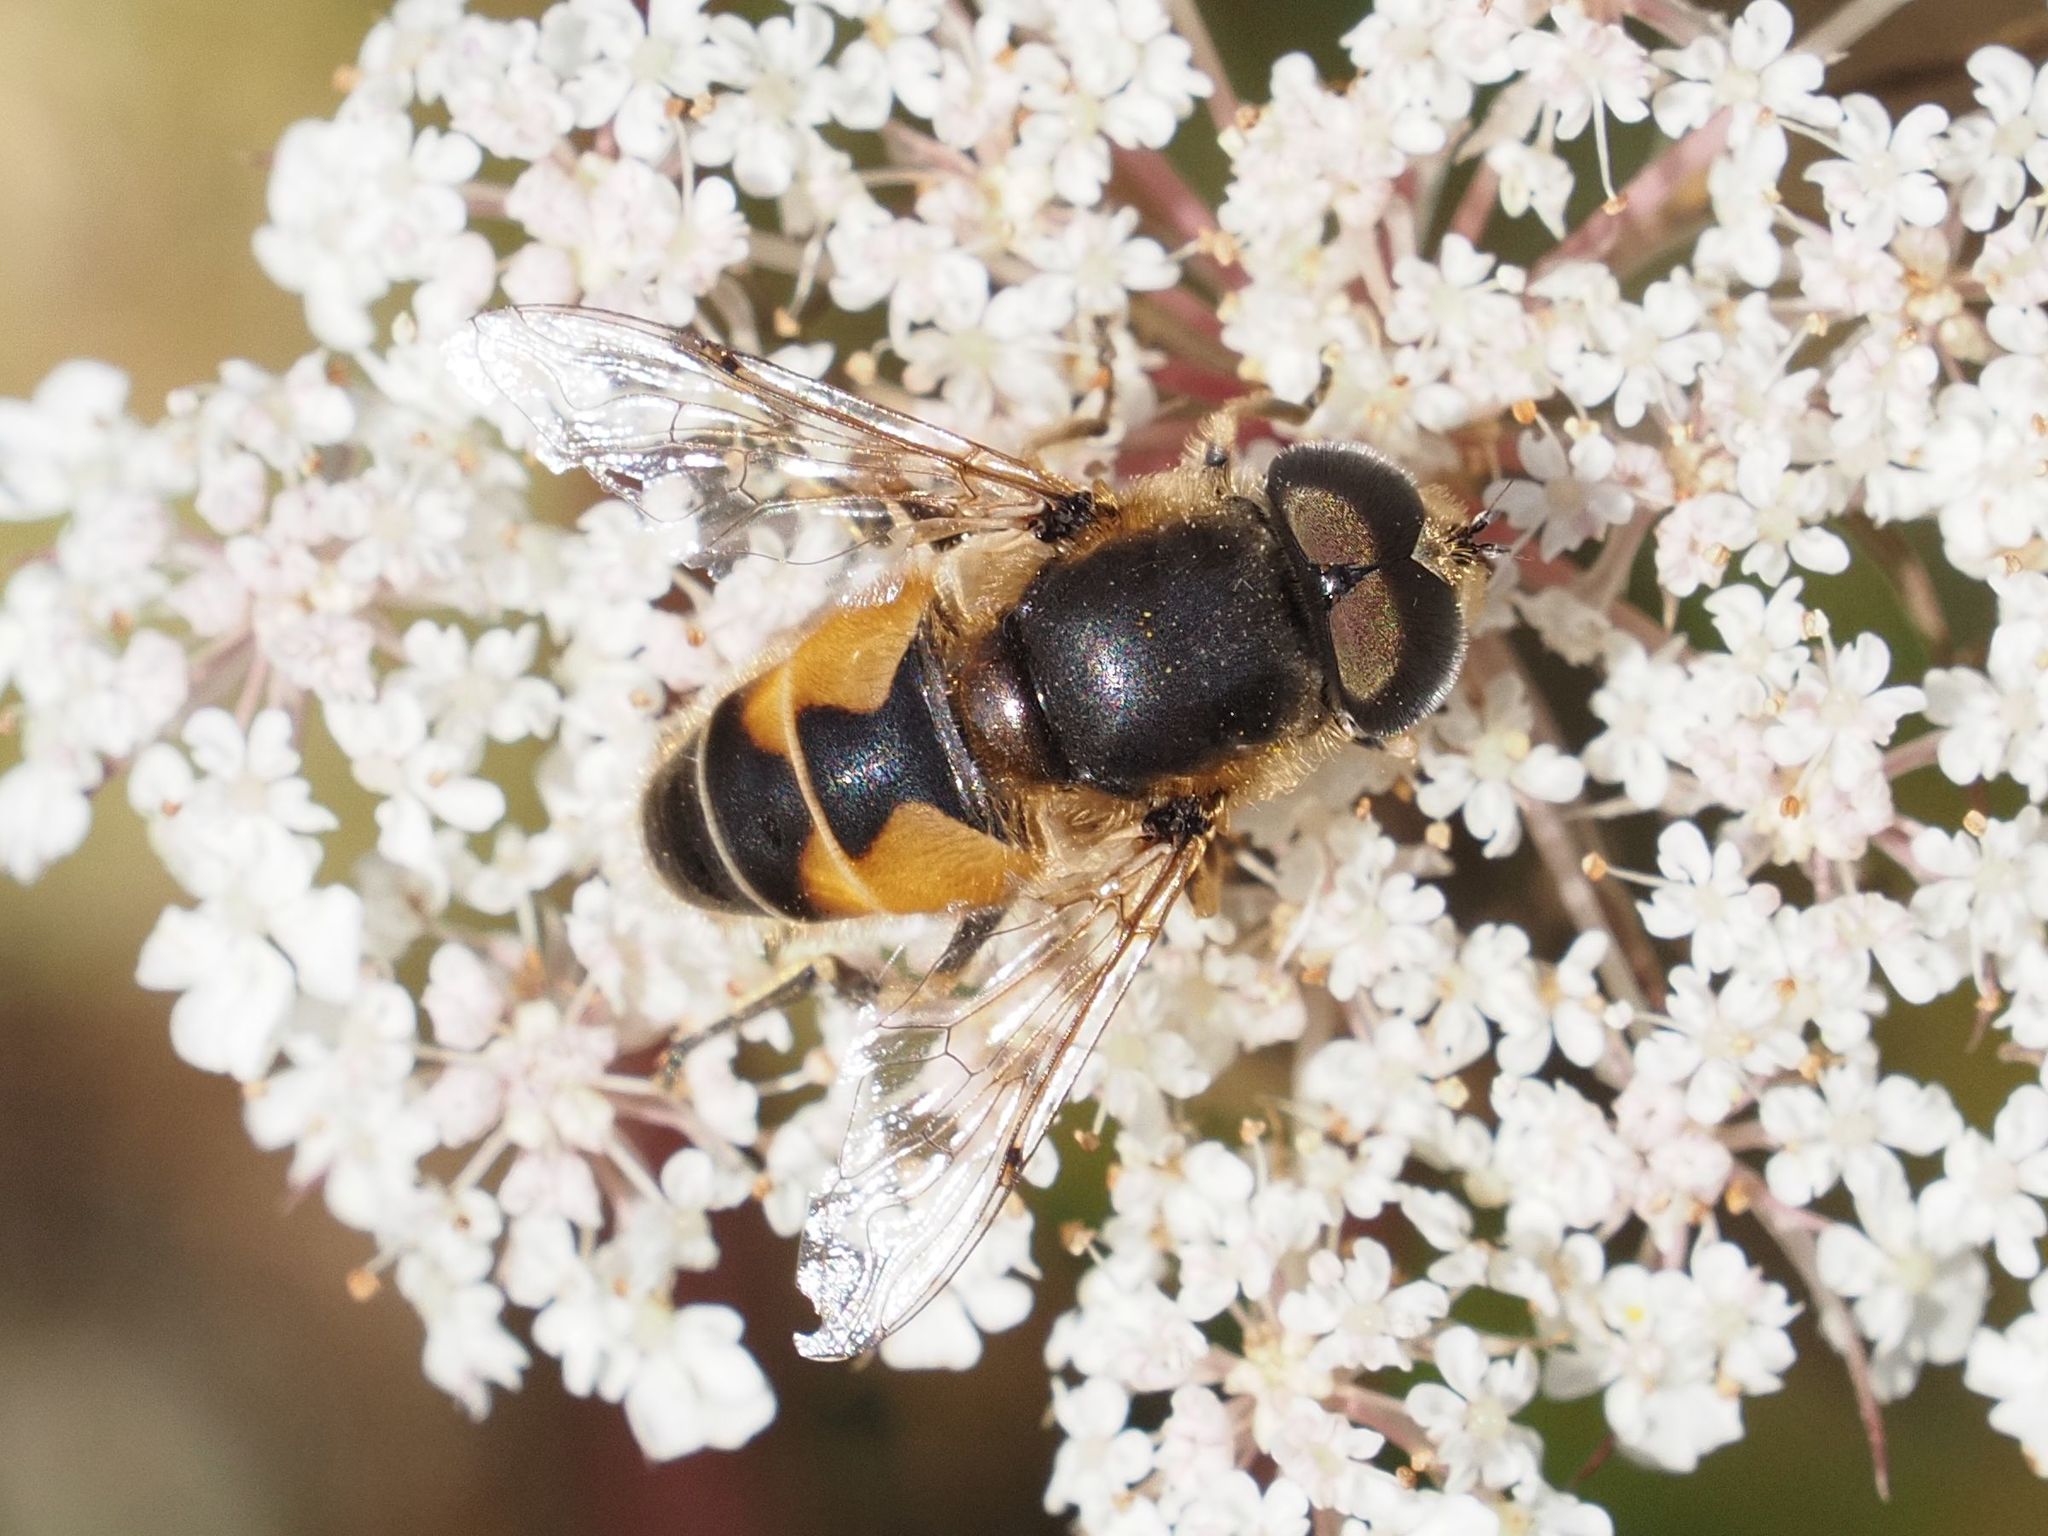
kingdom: Animalia
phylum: Arthropoda
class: Insecta
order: Diptera
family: Syrphidae
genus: Eristalis
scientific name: Eristalis arbustorum
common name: Hover fly
